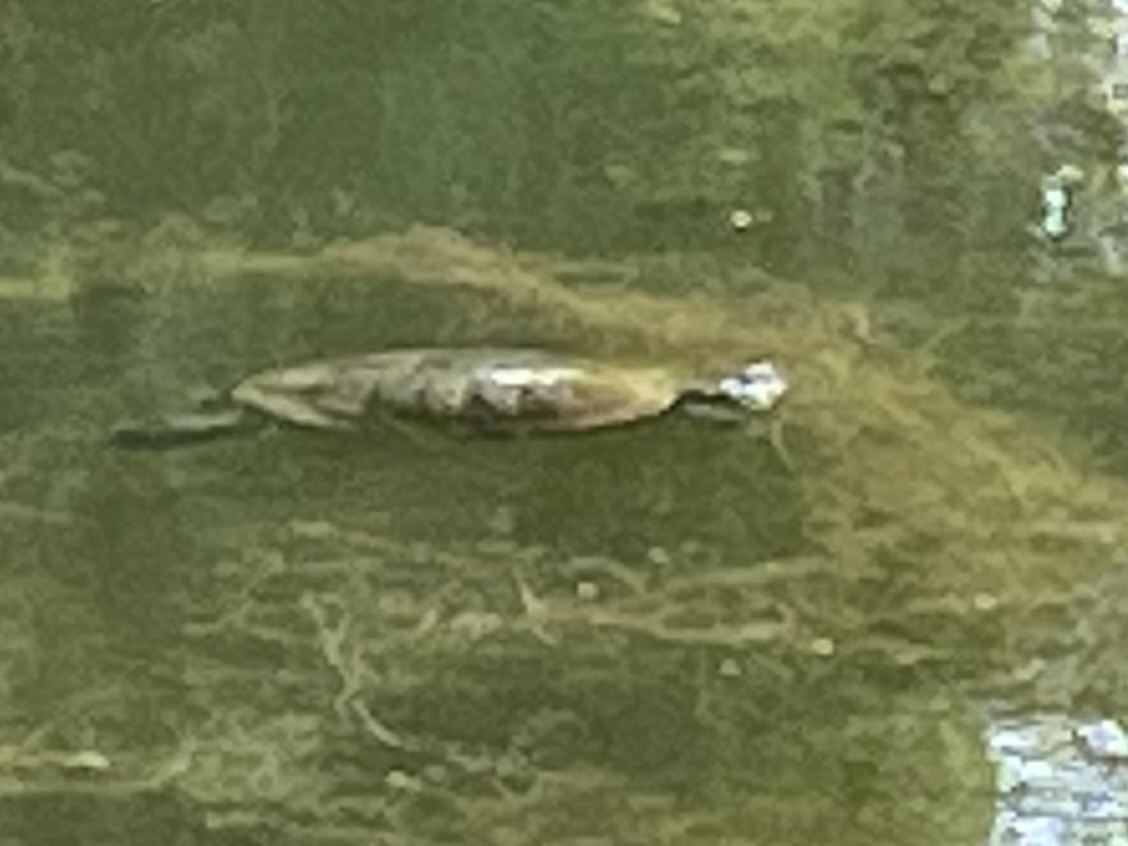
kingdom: Animalia
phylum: Chordata
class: Testudines
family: Emydidae
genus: Trachemys
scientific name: Trachemys scripta
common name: Slider
